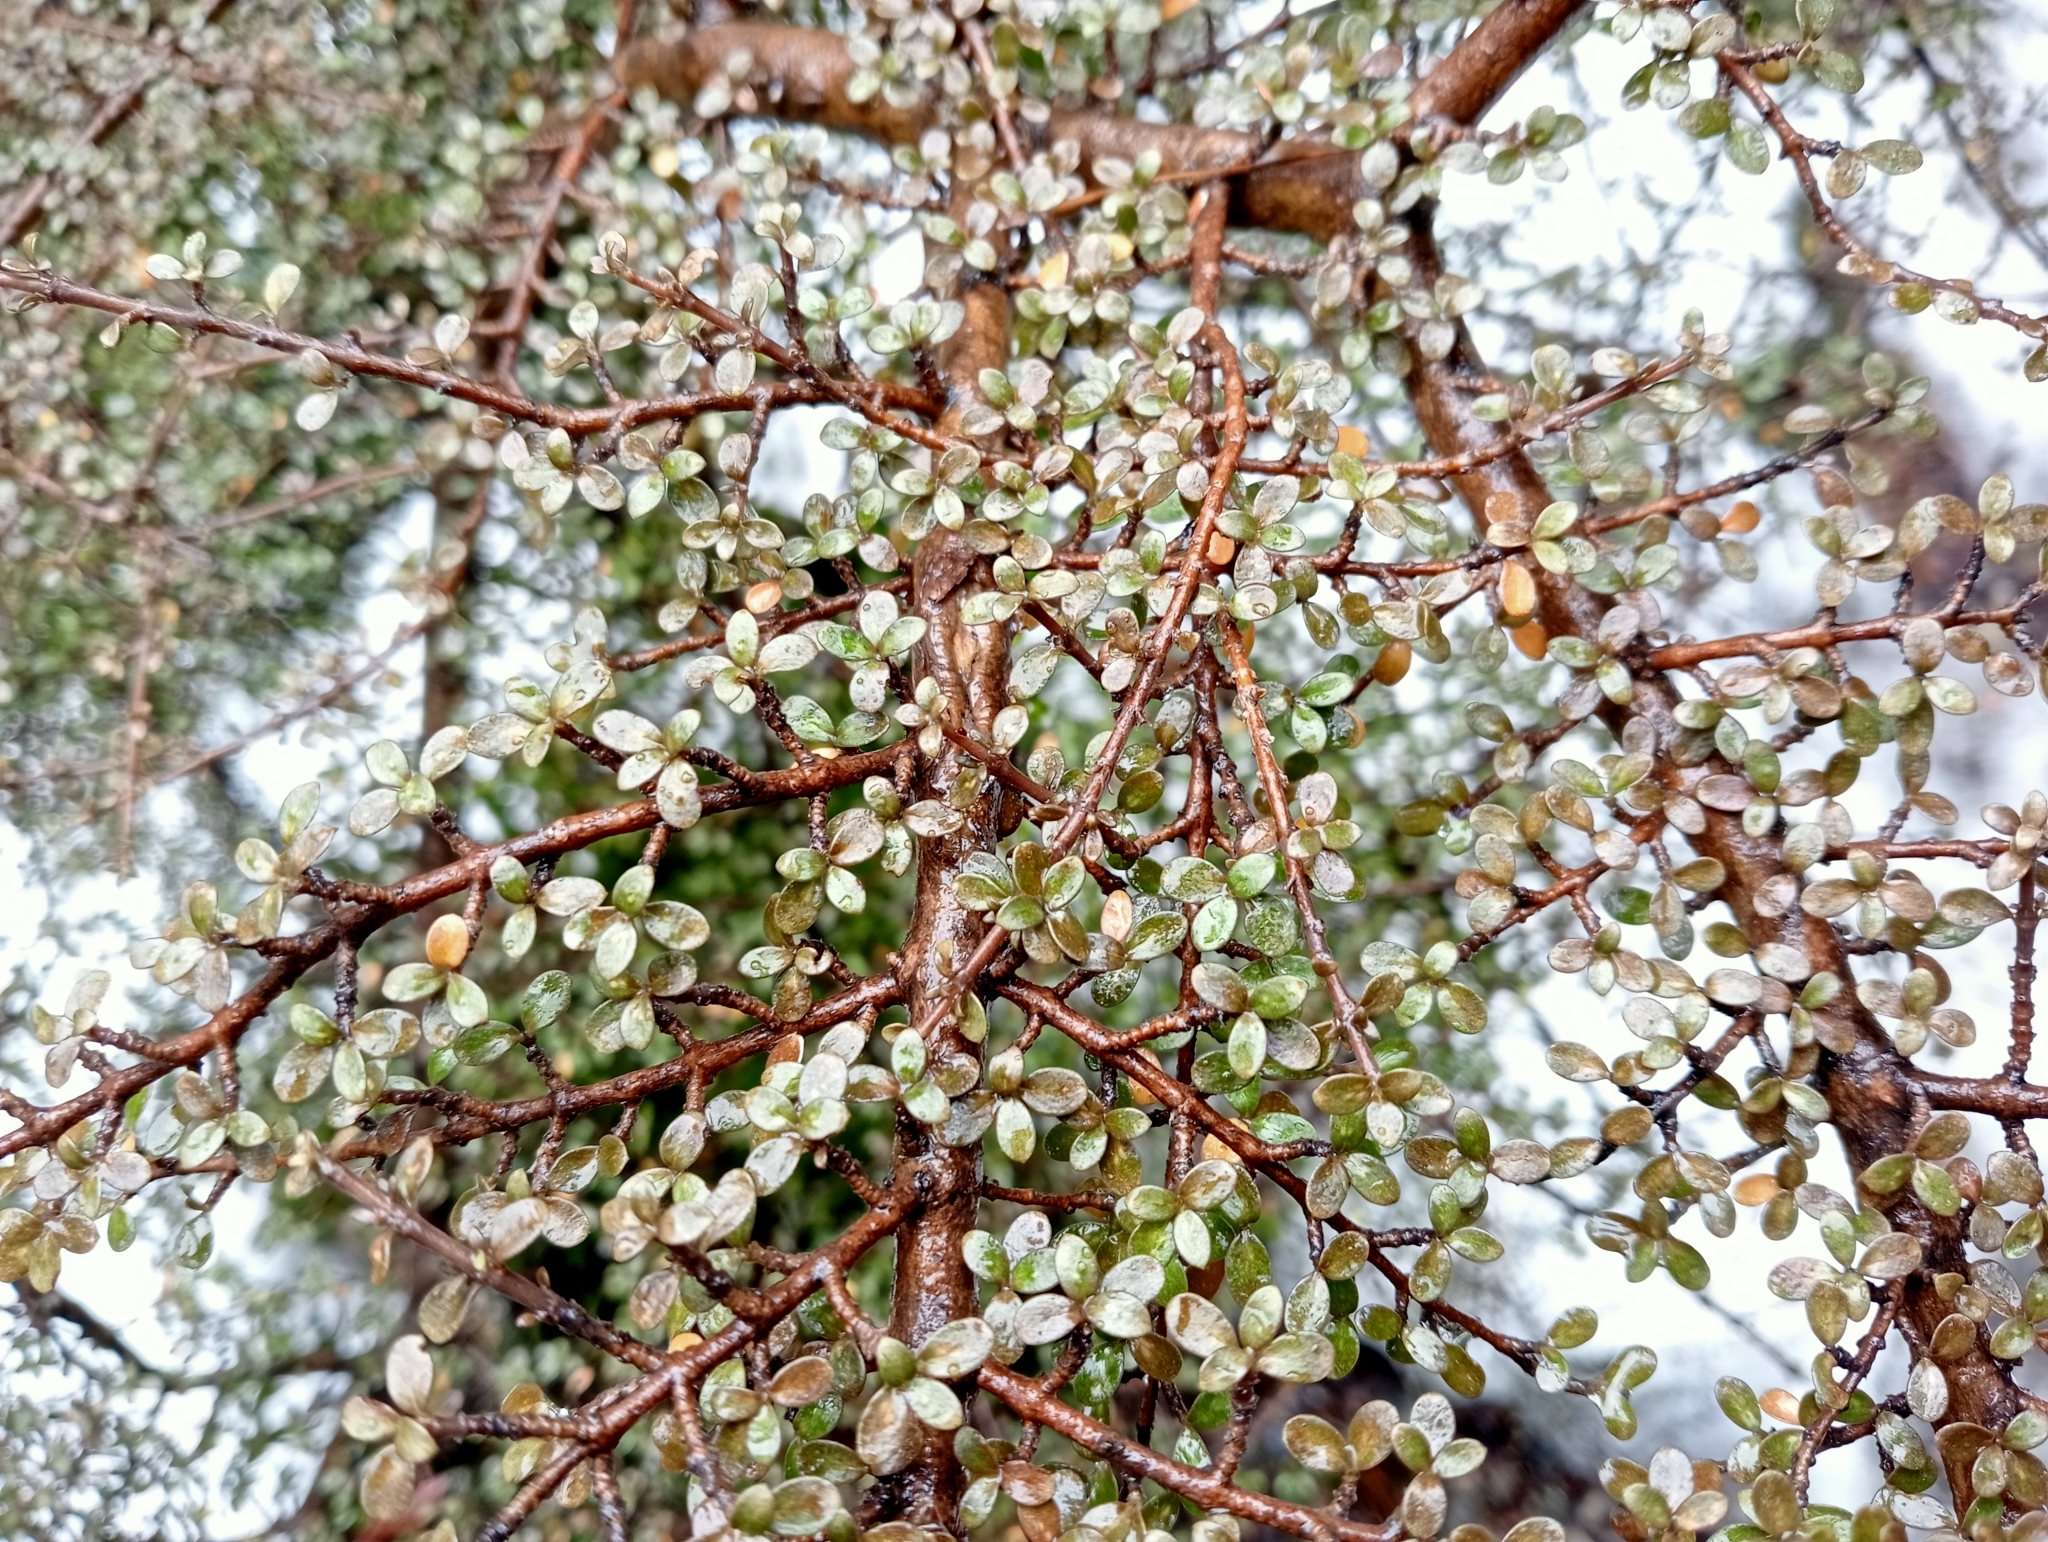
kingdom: Plantae
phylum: Tracheophyta
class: Magnoliopsida
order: Gentianales
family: Rubiaceae
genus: Coprosma
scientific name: Coprosma dumosa
